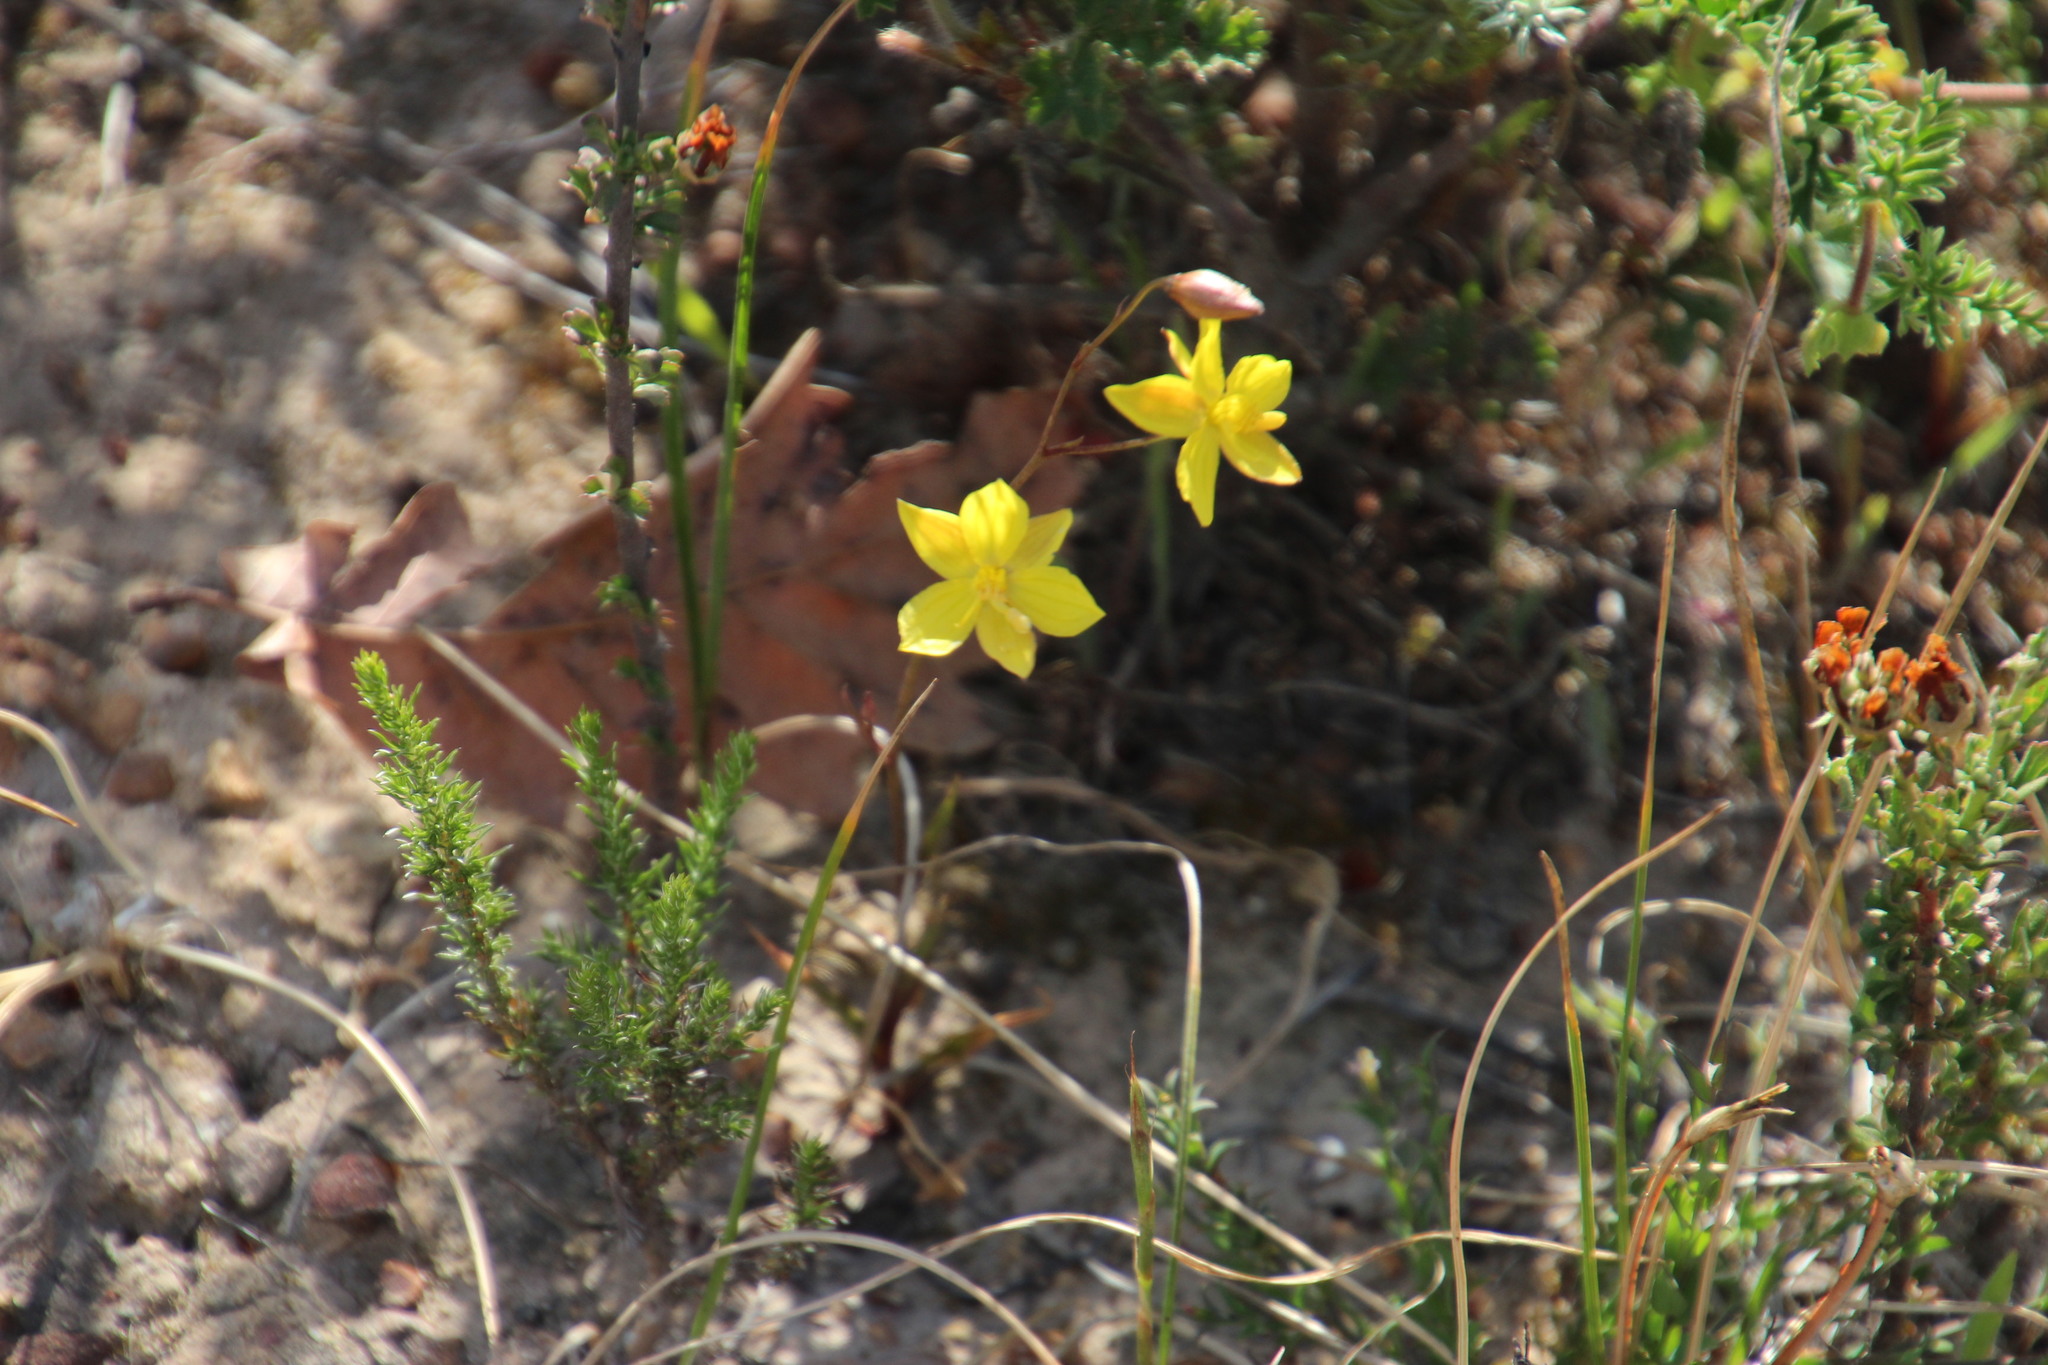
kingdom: Plantae
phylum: Tracheophyta
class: Liliopsida
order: Asparagales
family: Tecophilaeaceae
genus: Cyanella
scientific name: Cyanella lutea
